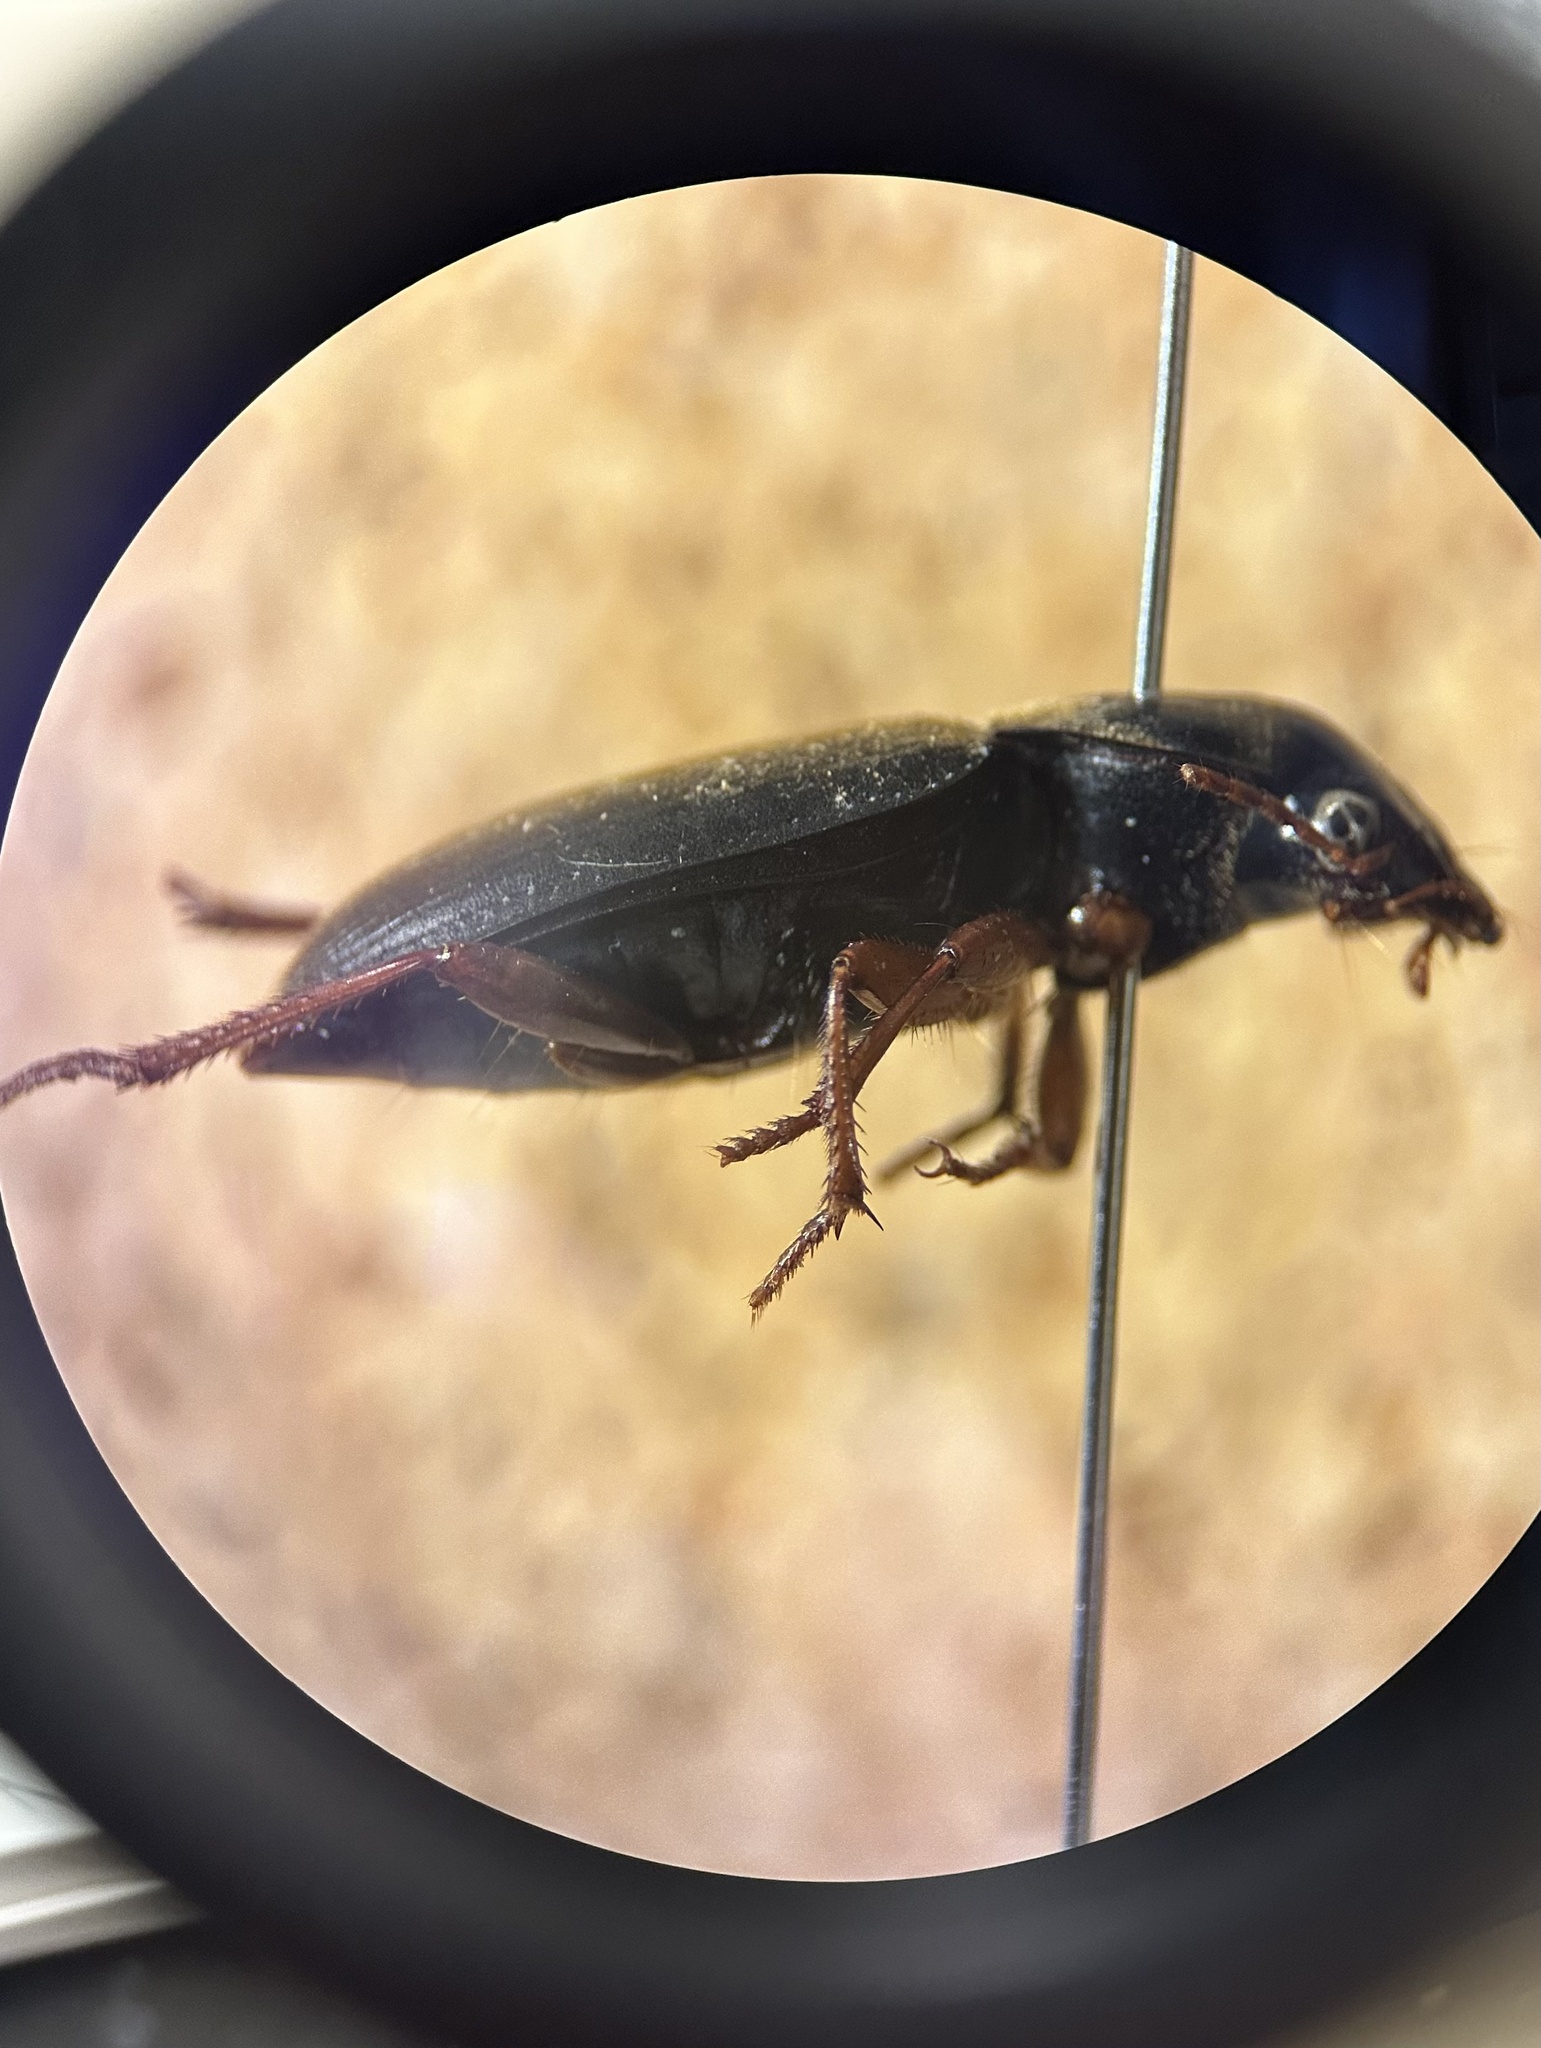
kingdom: Animalia
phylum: Arthropoda
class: Insecta
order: Coleoptera
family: Carabidae
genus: Harpalus
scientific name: Harpalus rufipes
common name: Strawberry harp ground beetle
